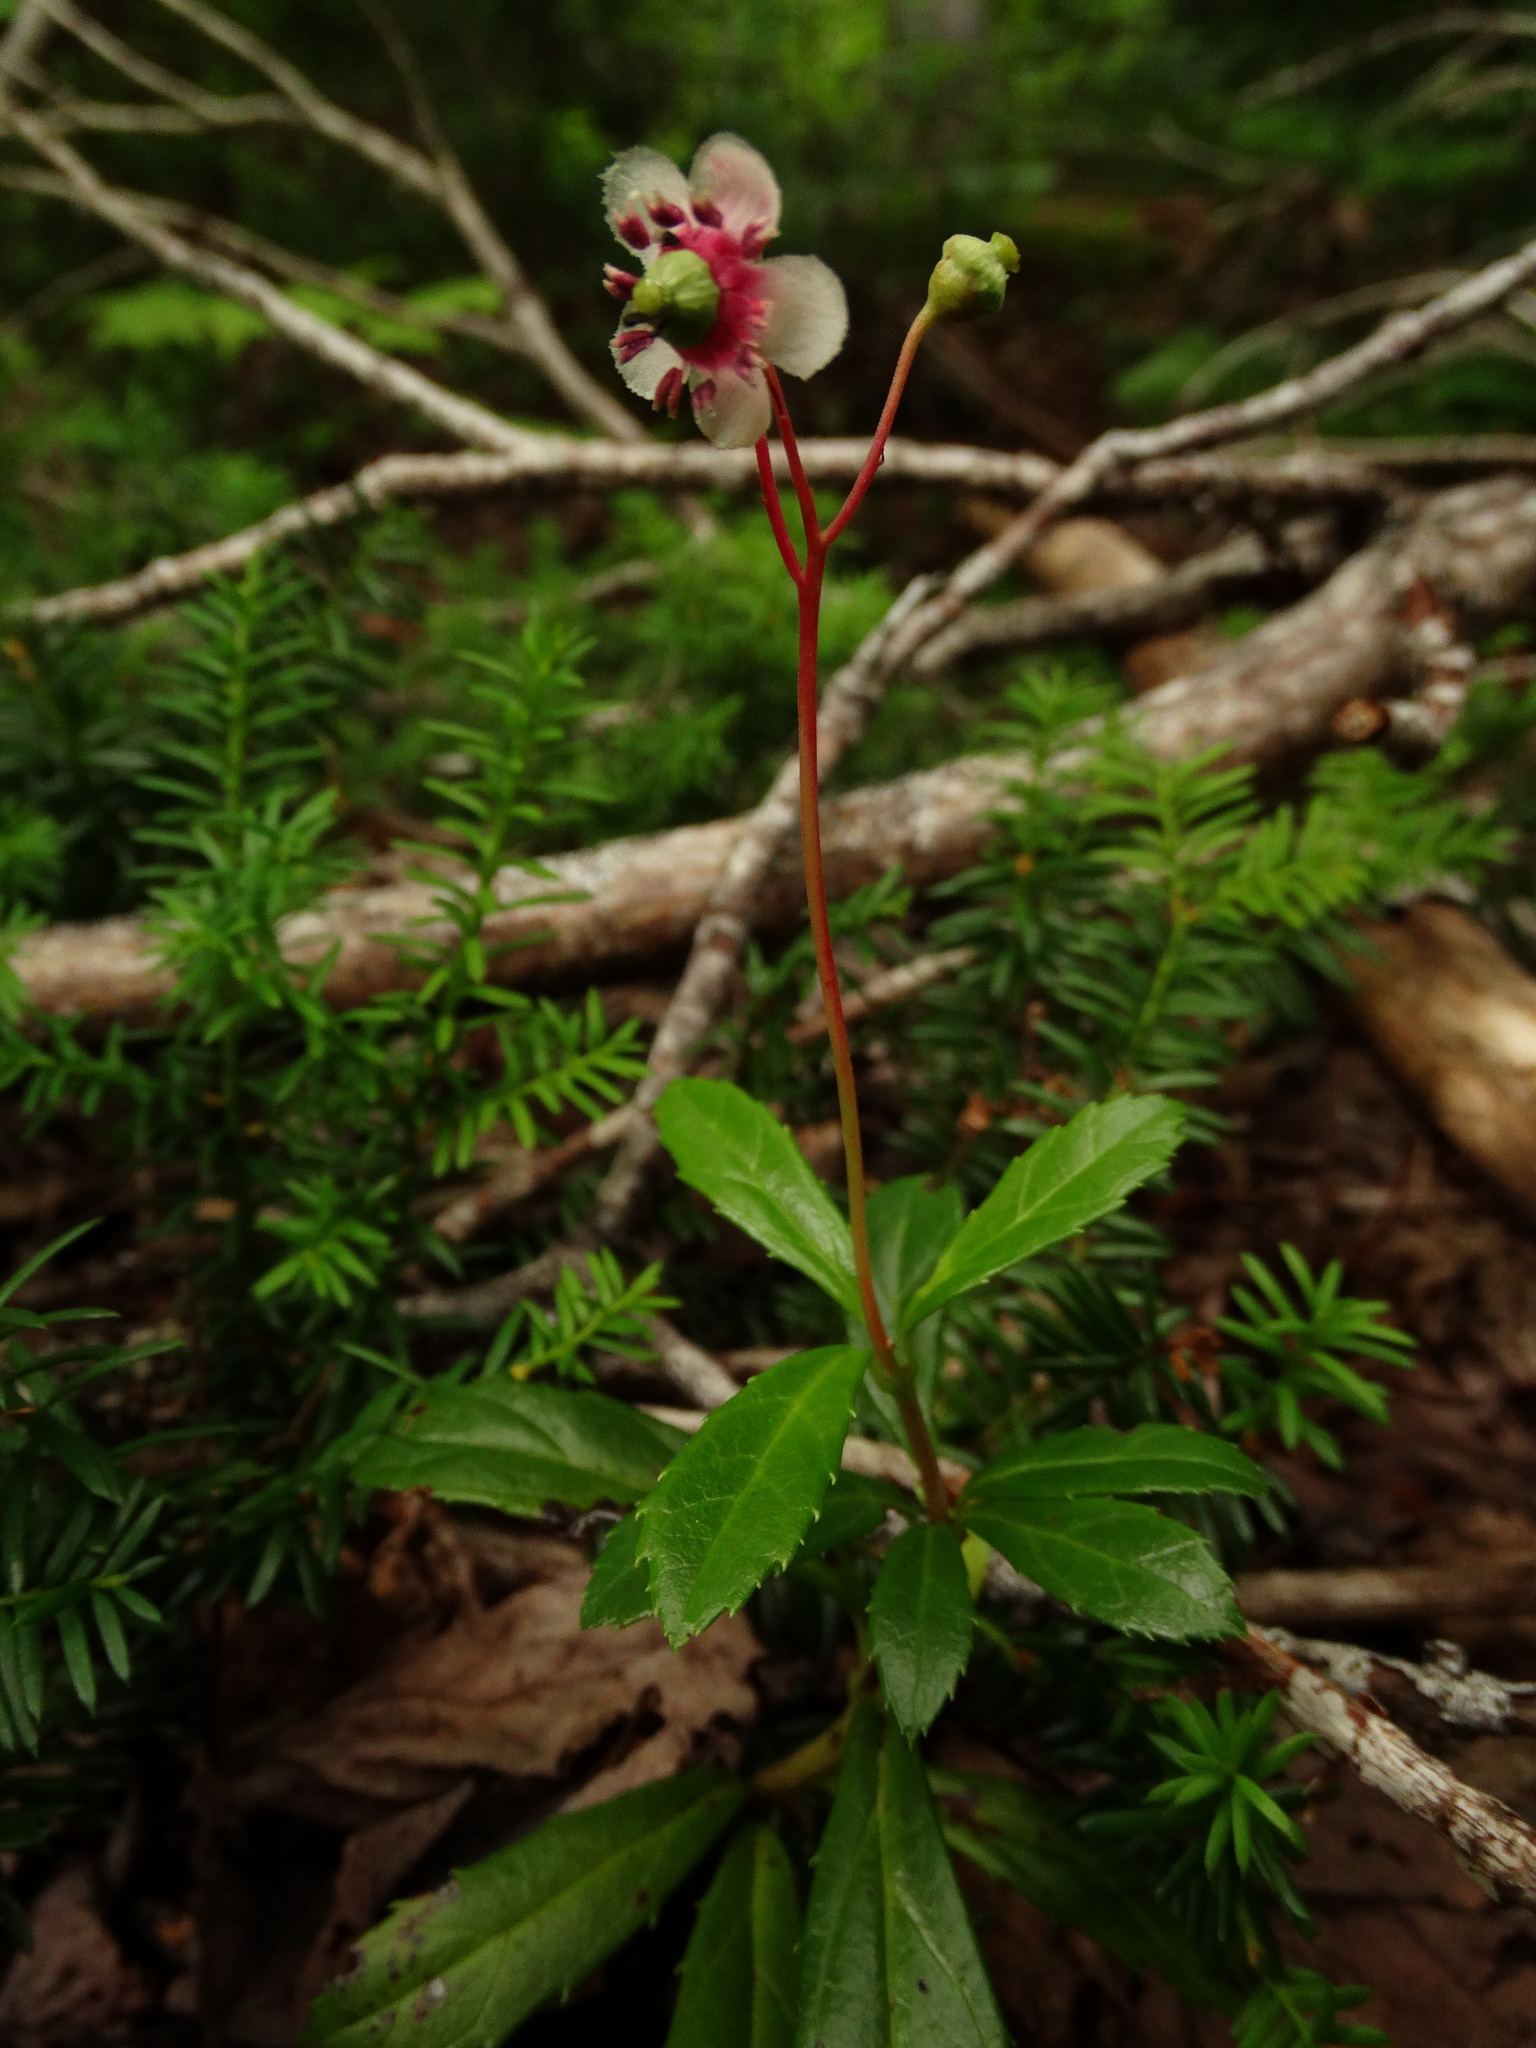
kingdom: Plantae
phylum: Tracheophyta
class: Magnoliopsida
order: Ericales
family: Ericaceae
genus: Chimaphila
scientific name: Chimaphila umbellata
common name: Pipsissewa
